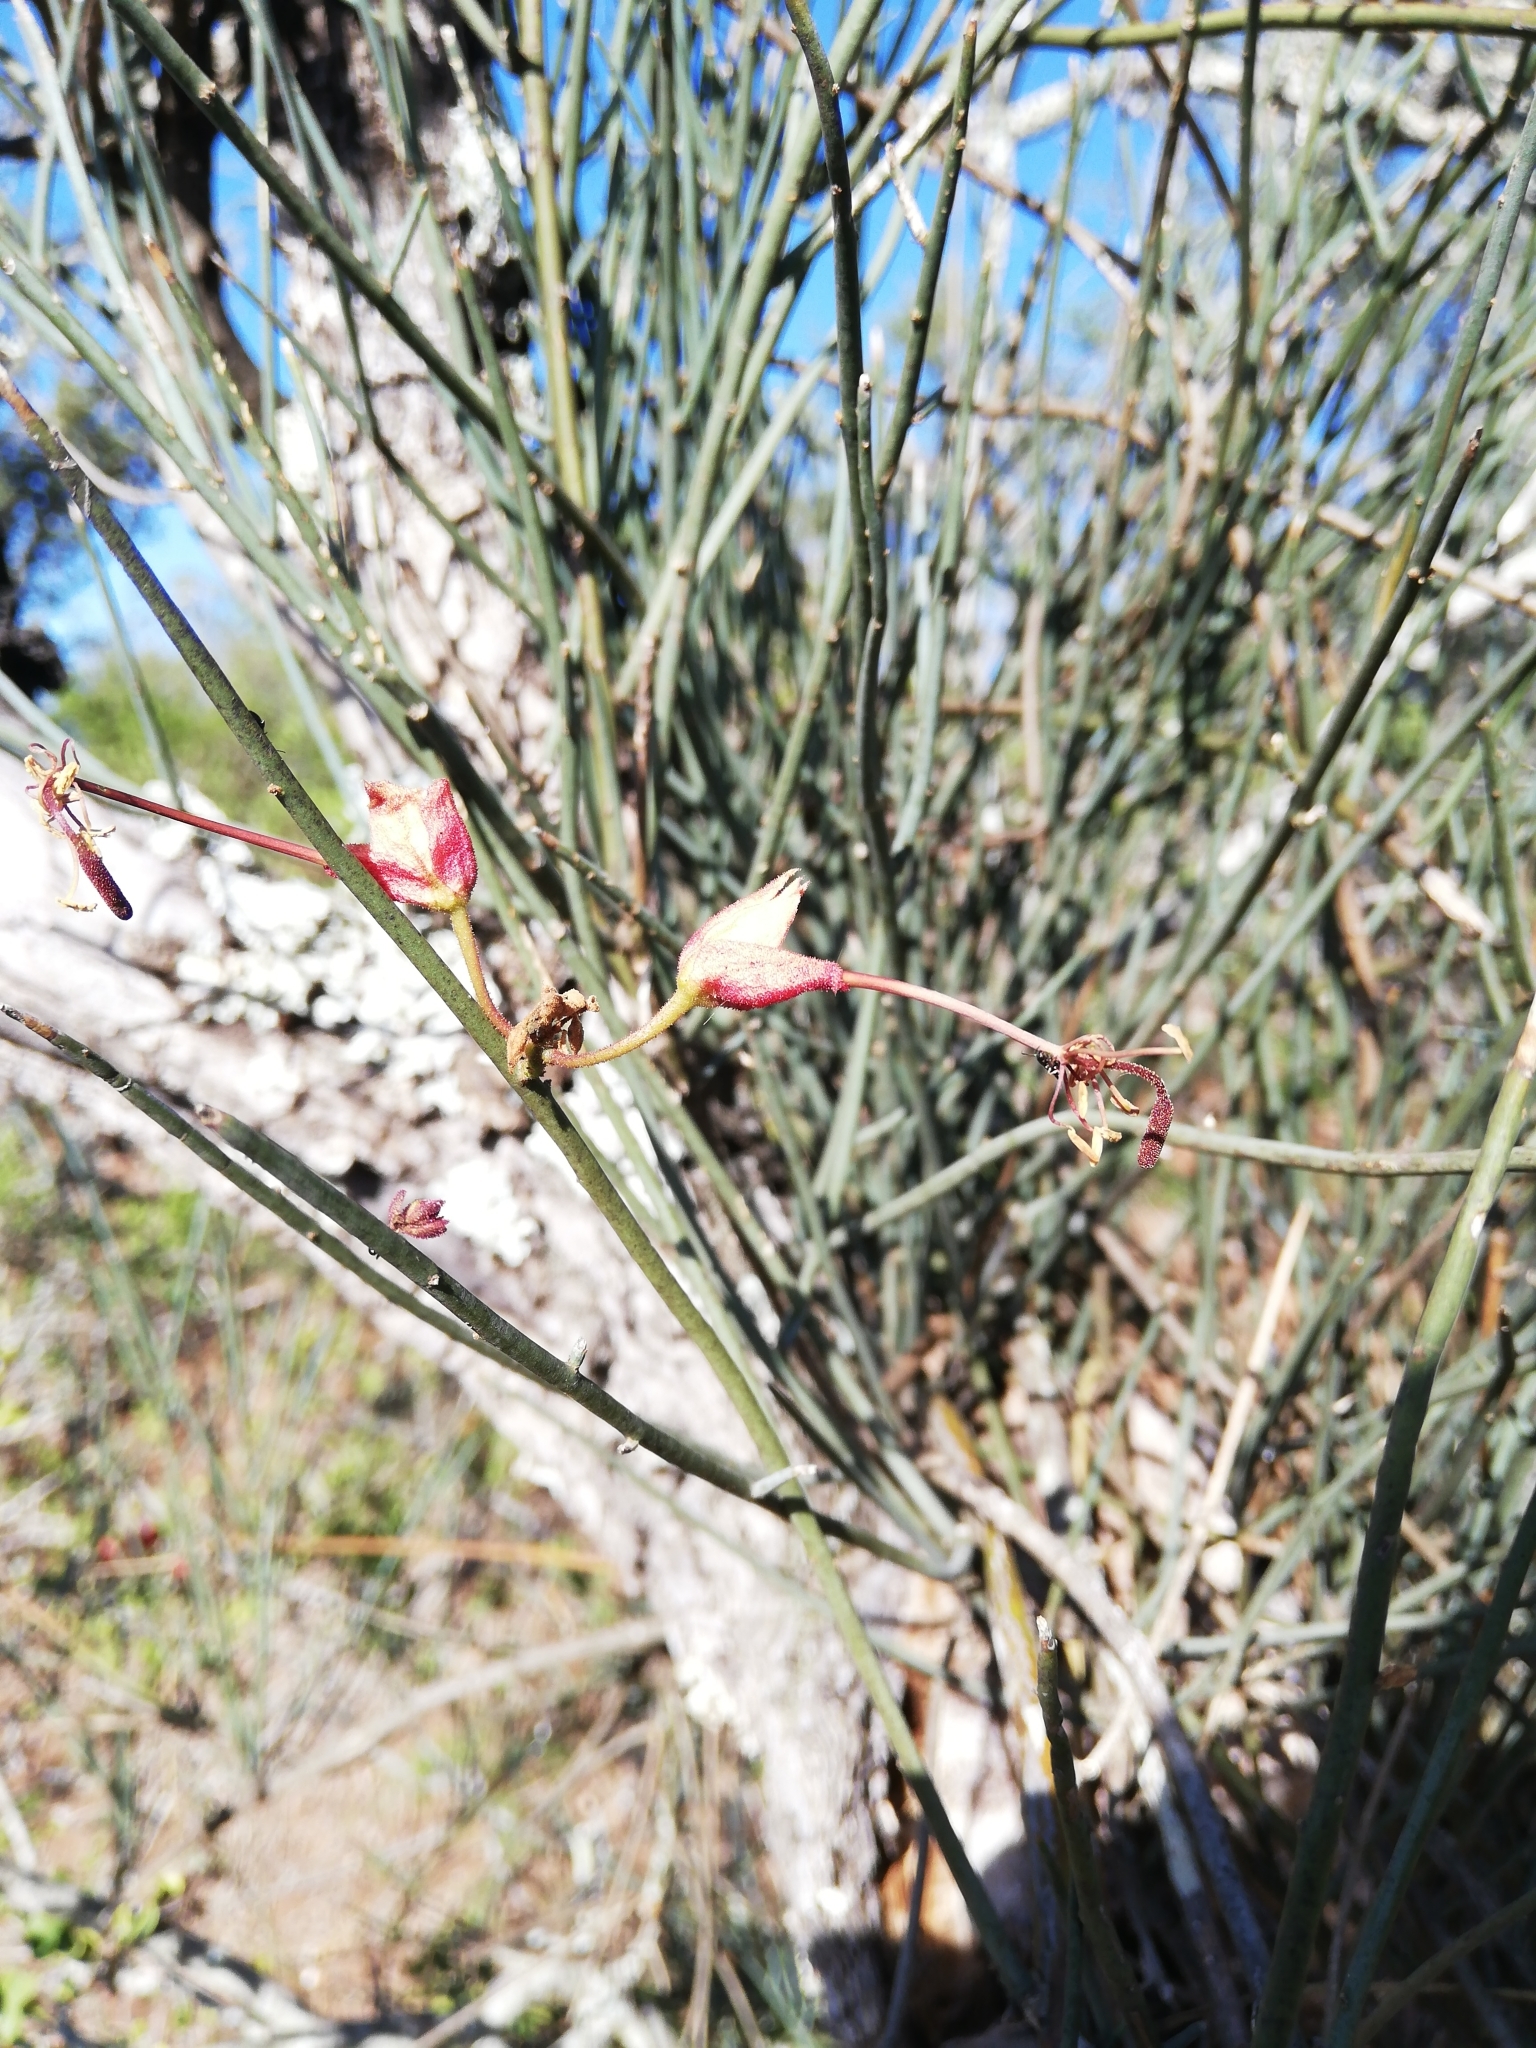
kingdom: Plantae
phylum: Tracheophyta
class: Magnoliopsida
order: Brassicales
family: Capparaceae
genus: Cadaba
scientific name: Cadaba aphylla
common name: Black storm
